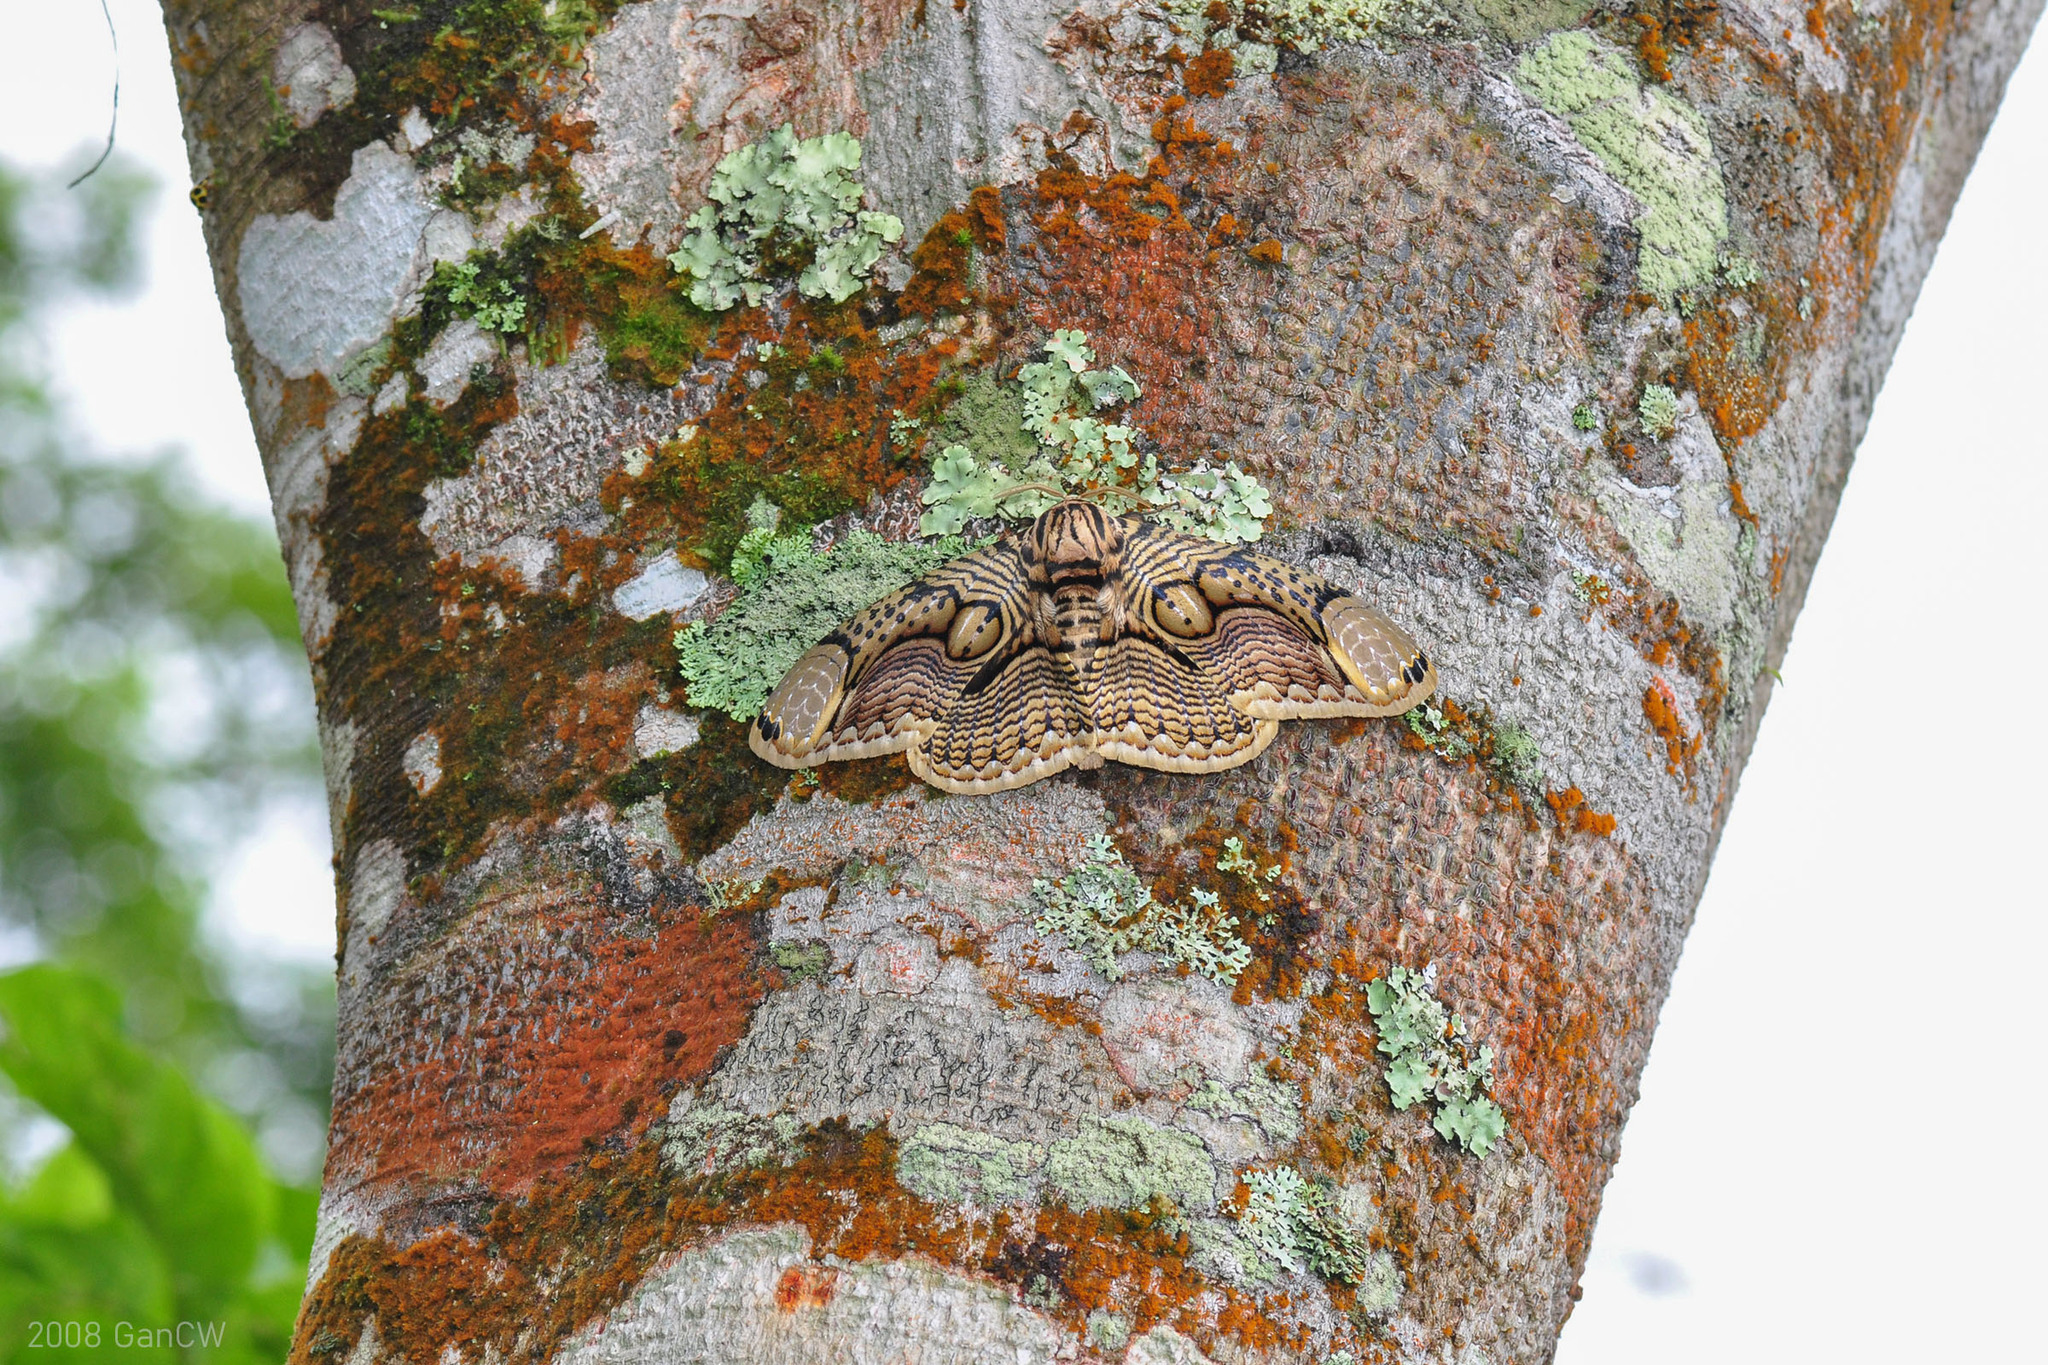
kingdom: Animalia
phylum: Arthropoda
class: Insecta
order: Lepidoptera
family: Brahmaeidae
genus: Brahmaea
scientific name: Brahmaea hearseyi
